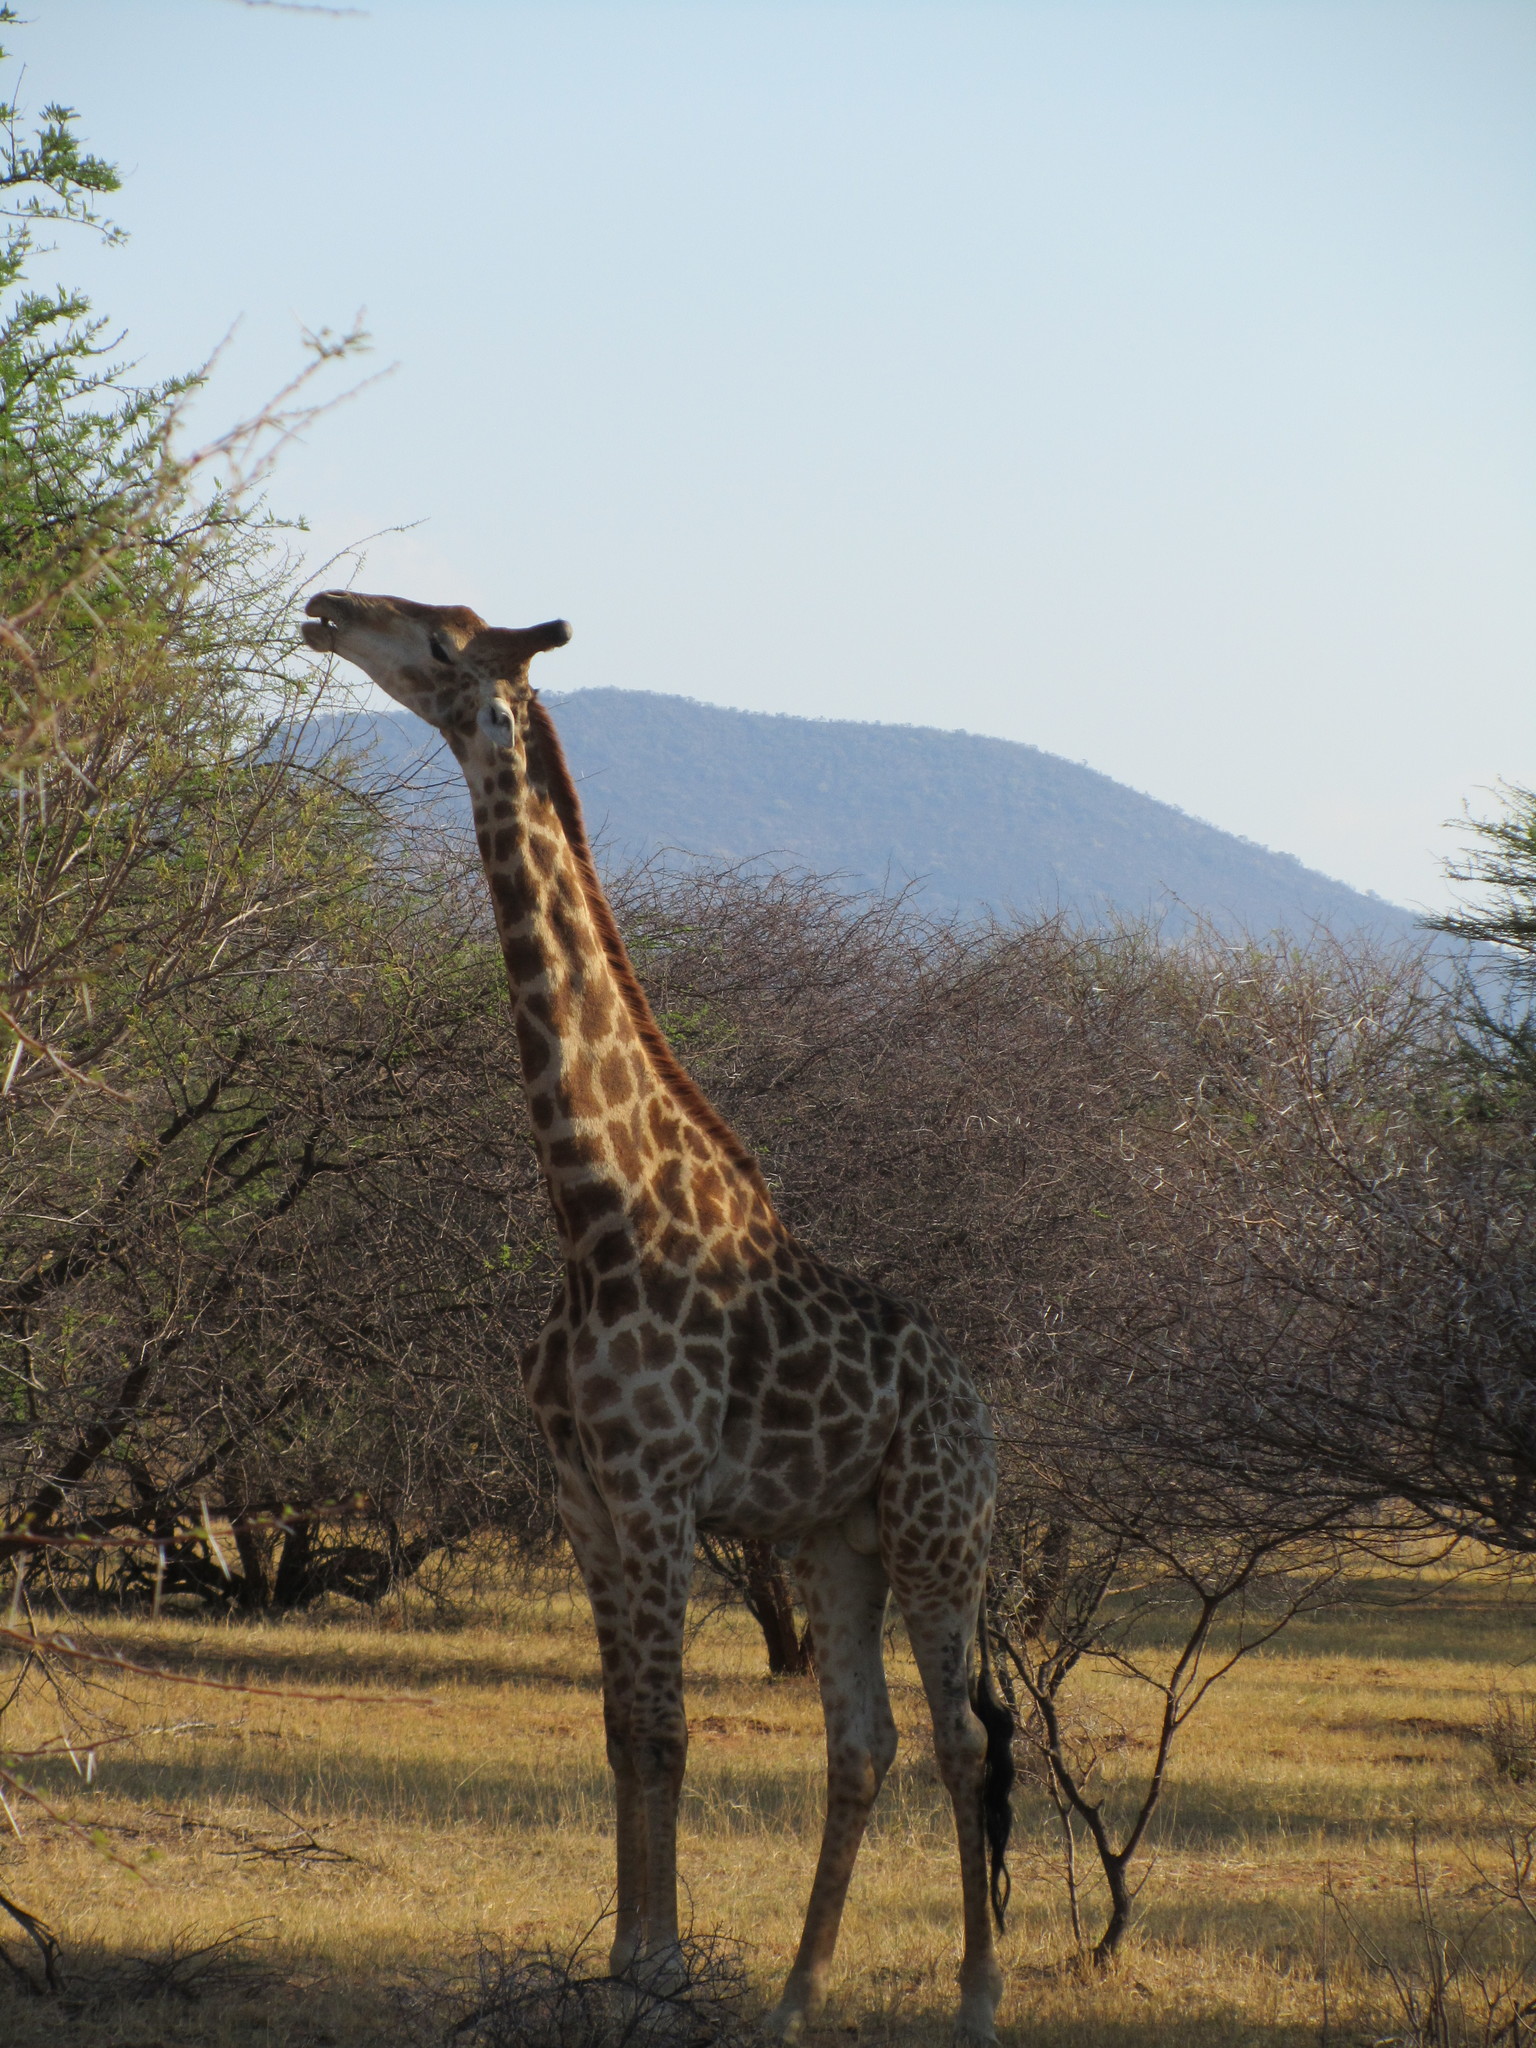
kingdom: Animalia
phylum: Chordata
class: Mammalia
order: Artiodactyla
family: Giraffidae
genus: Giraffa
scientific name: Giraffa giraffa
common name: Southern giraffe
